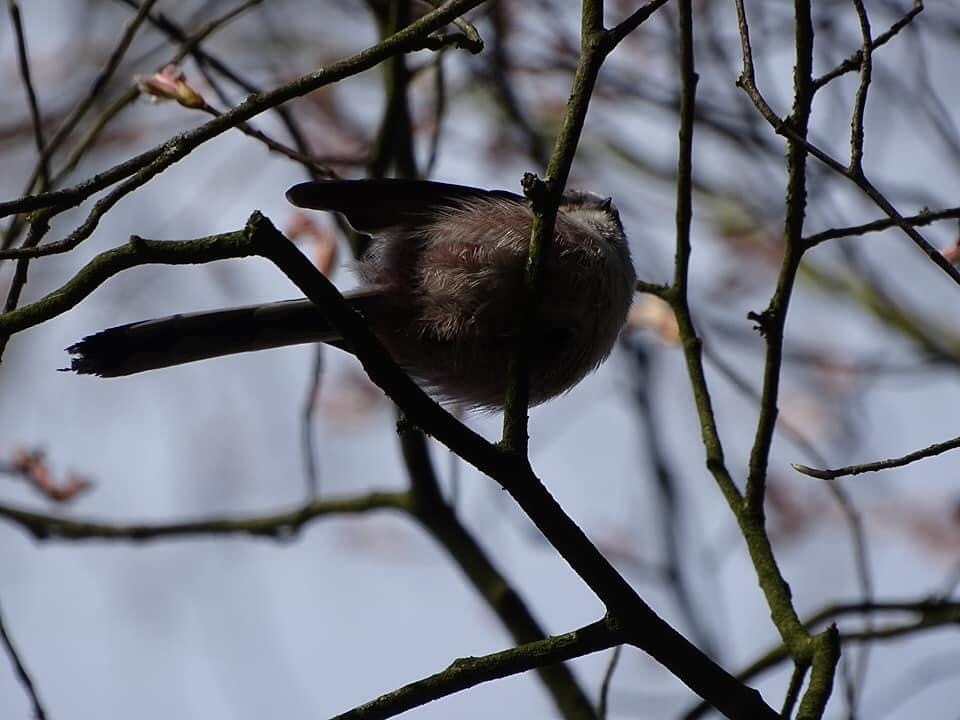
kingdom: Animalia
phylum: Chordata
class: Aves
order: Passeriformes
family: Aegithalidae
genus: Aegithalos
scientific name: Aegithalos caudatus
